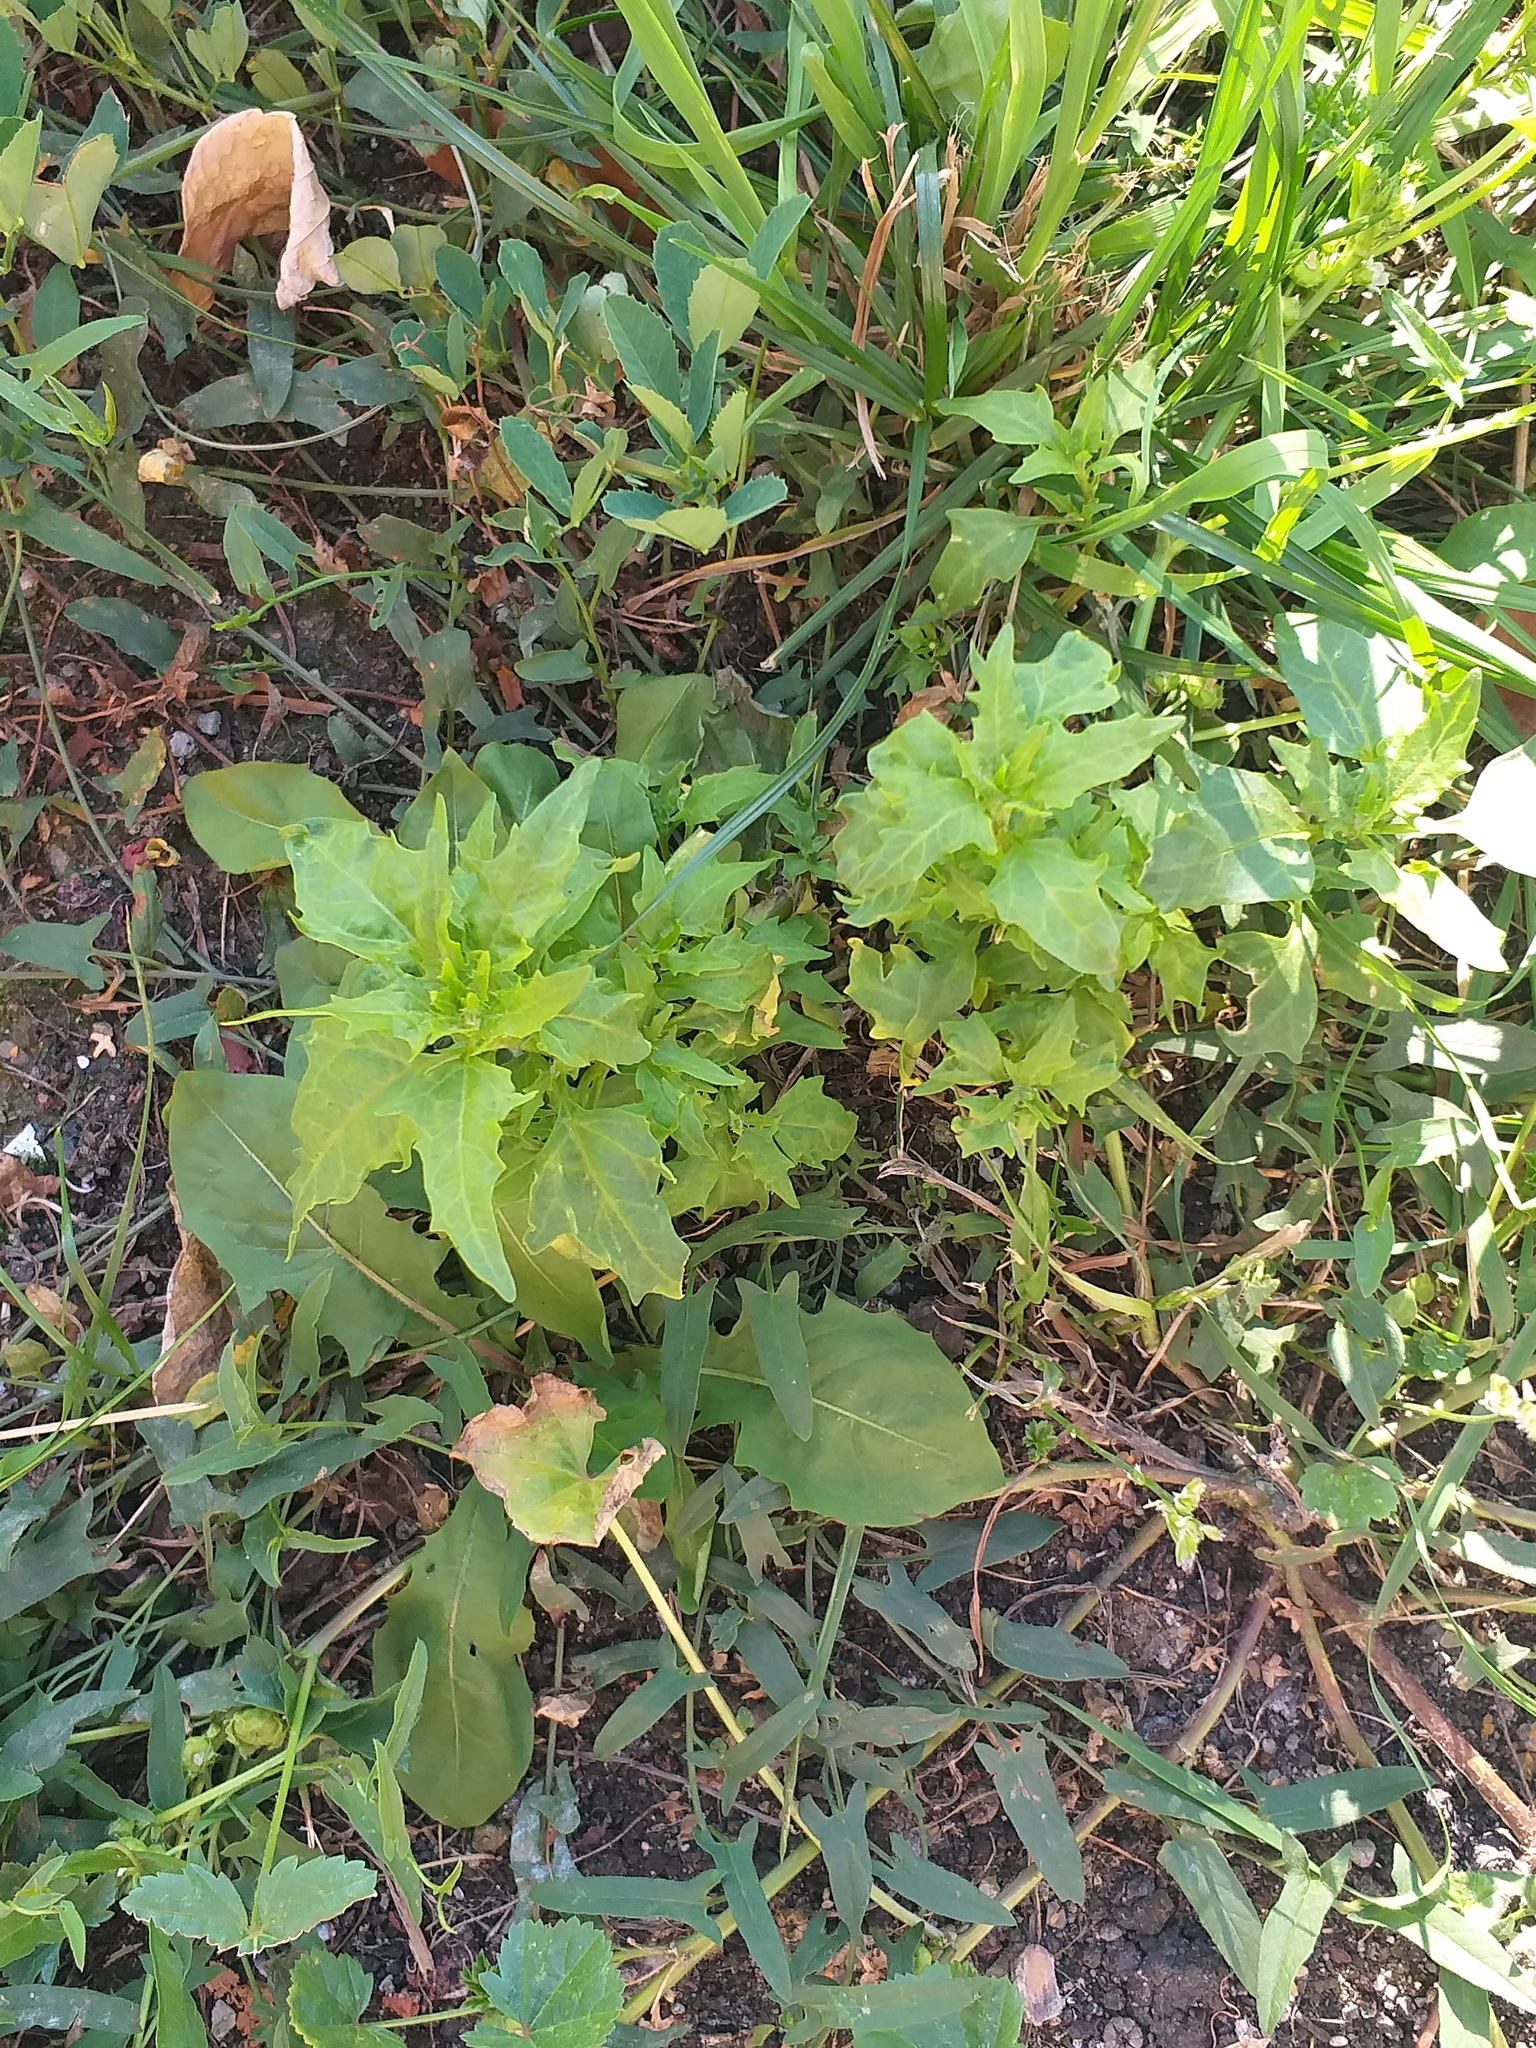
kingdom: Plantae
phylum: Tracheophyta
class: Magnoliopsida
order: Caryophyllales
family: Amaranthaceae
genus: Oxybasis
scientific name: Oxybasis rubra
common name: Red goosefoot
